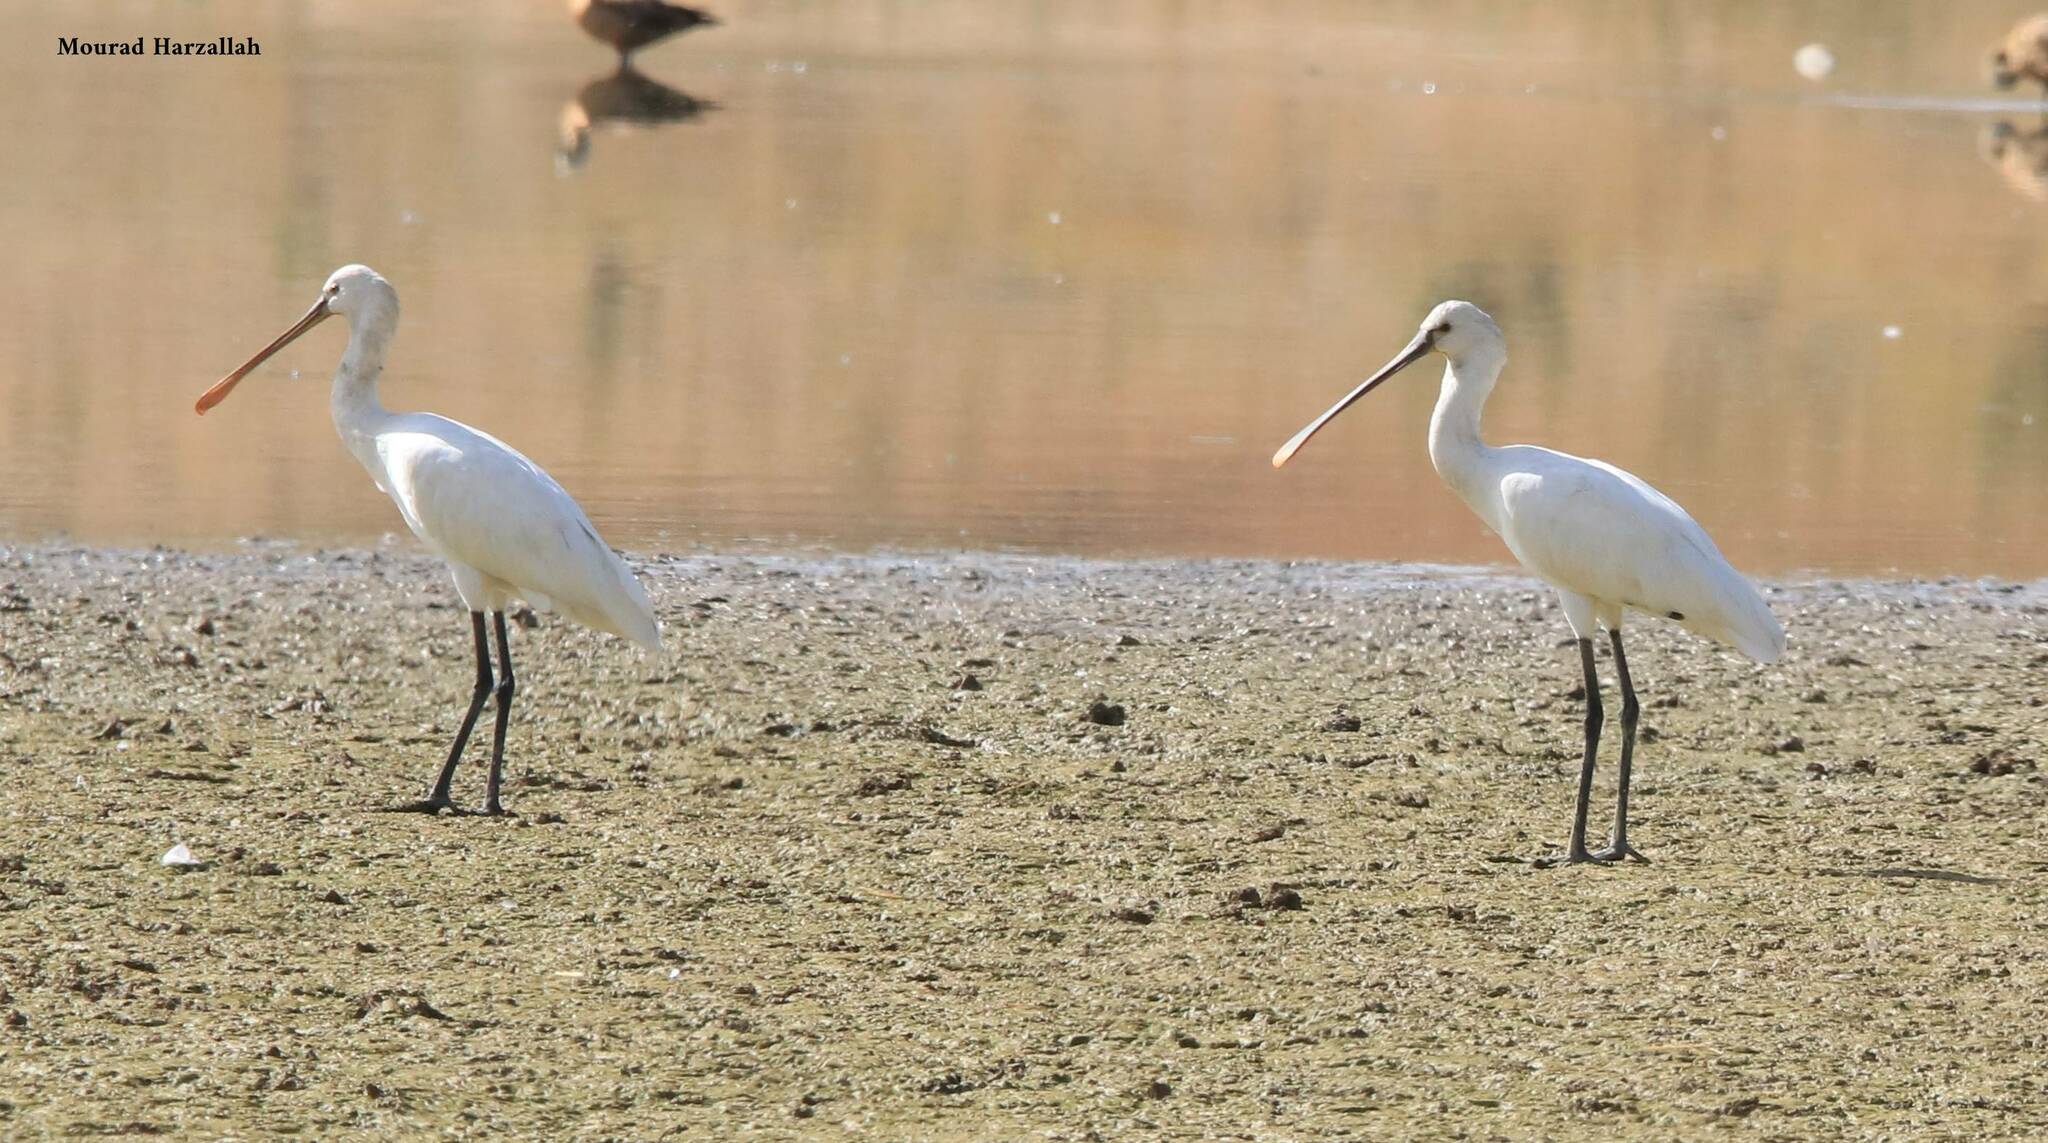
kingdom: Animalia
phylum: Chordata
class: Aves
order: Pelecaniformes
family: Threskiornithidae
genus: Platalea
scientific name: Platalea leucorodia
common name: Eurasian spoonbill
